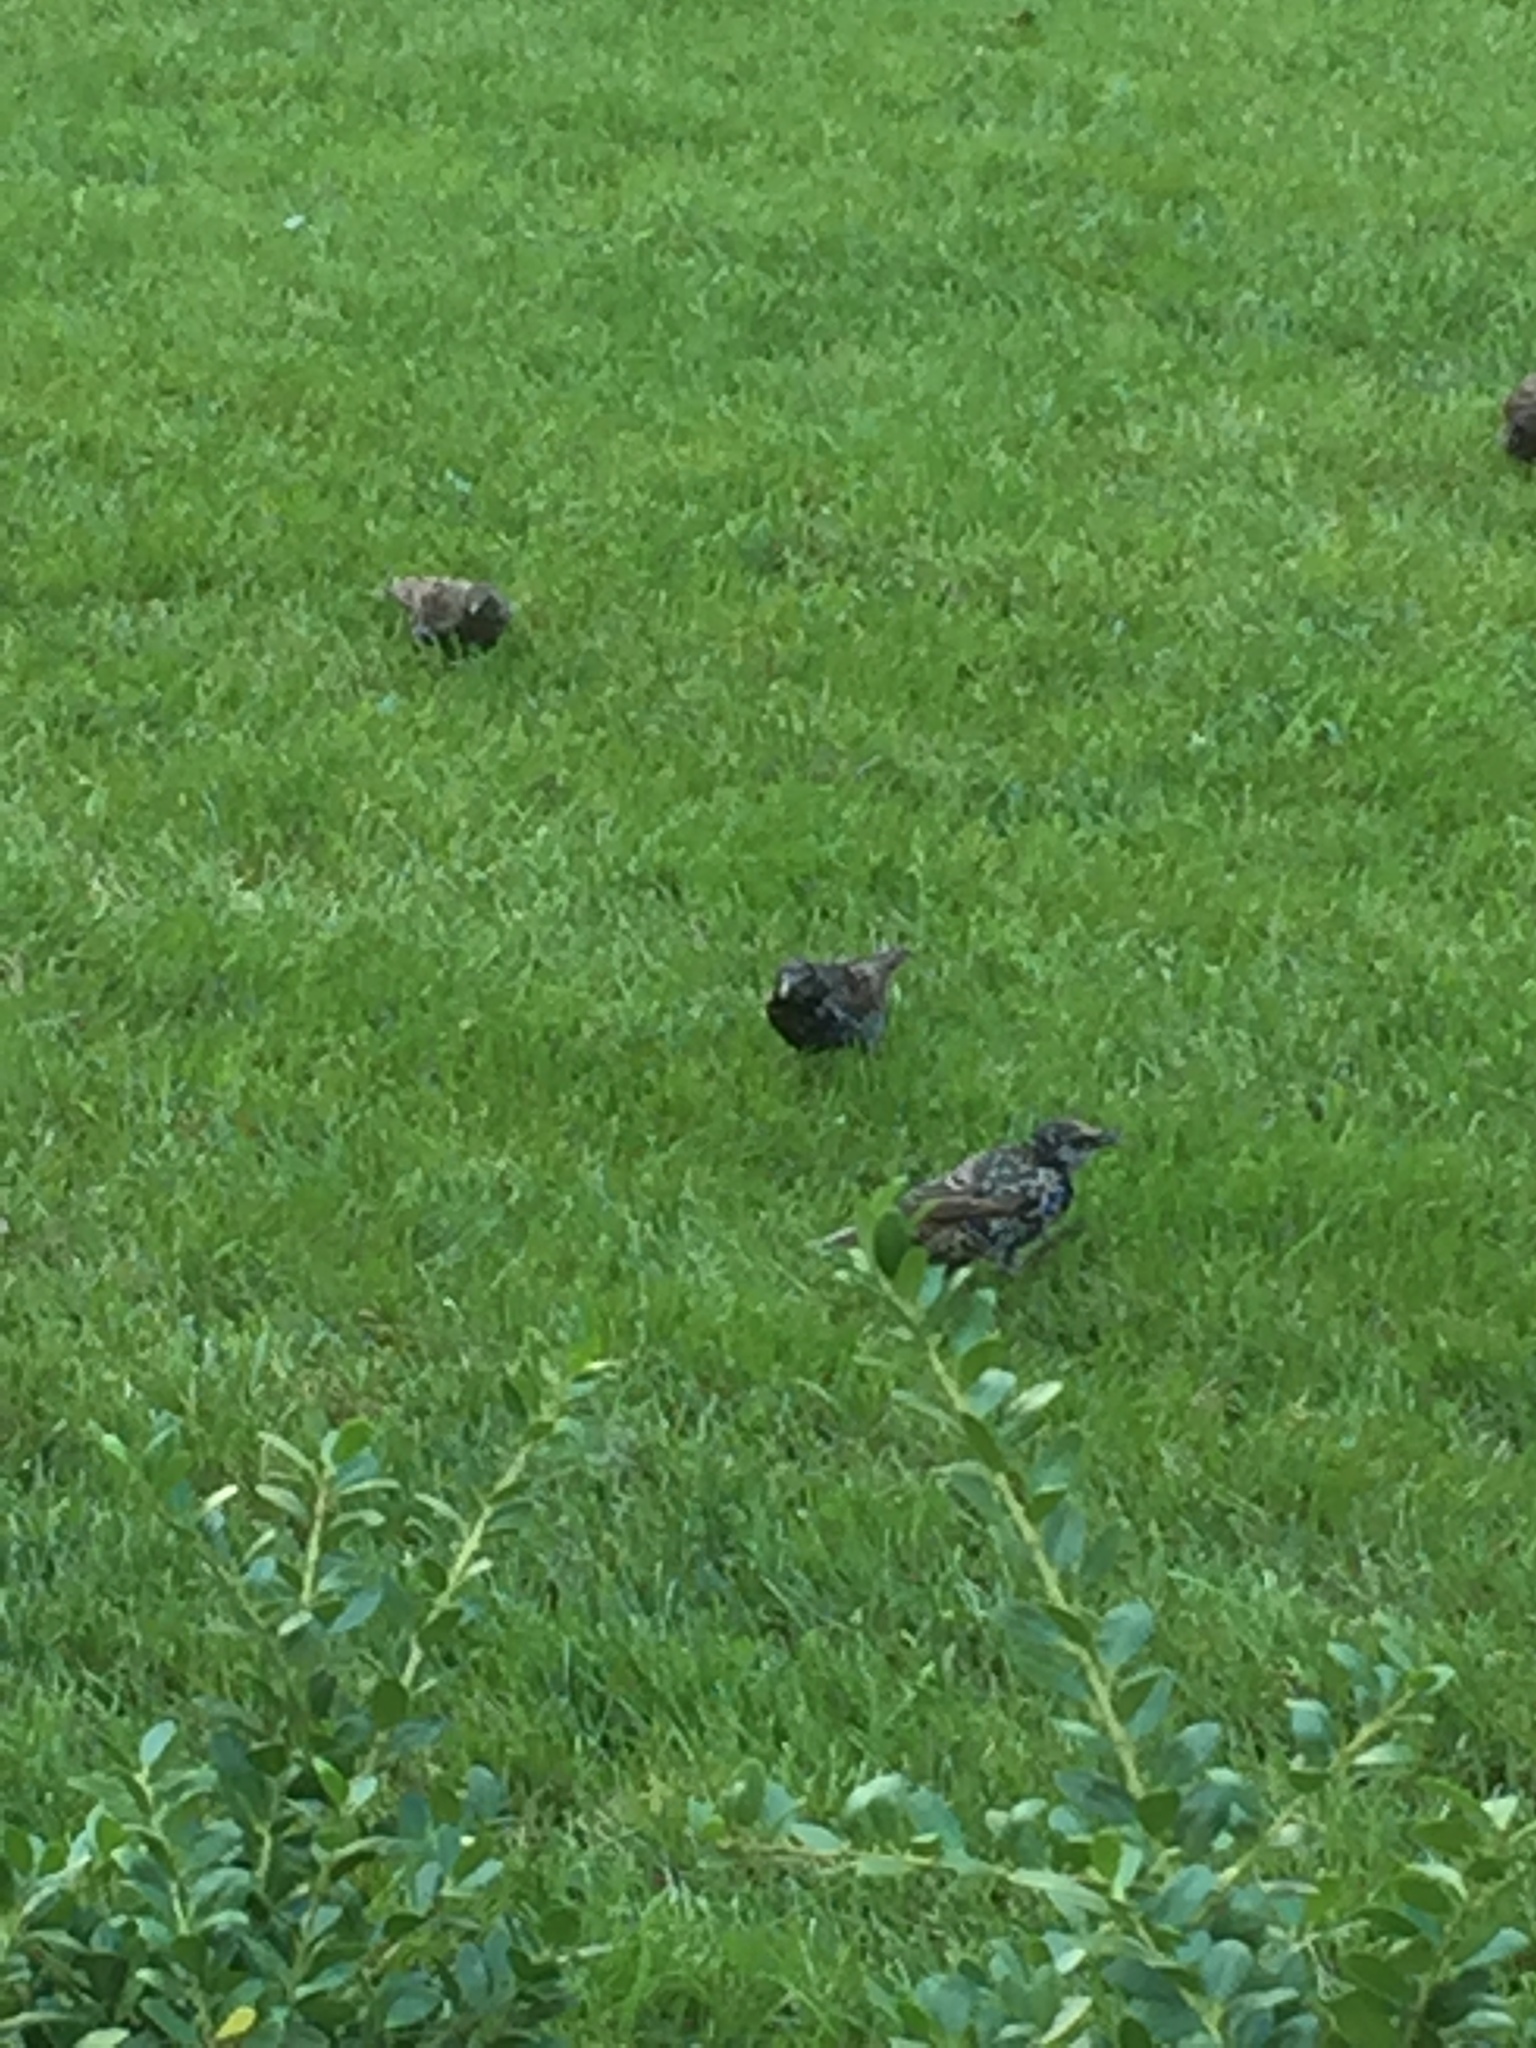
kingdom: Animalia
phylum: Chordata
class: Aves
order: Passeriformes
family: Sturnidae
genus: Sturnus
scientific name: Sturnus vulgaris
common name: Common starling
